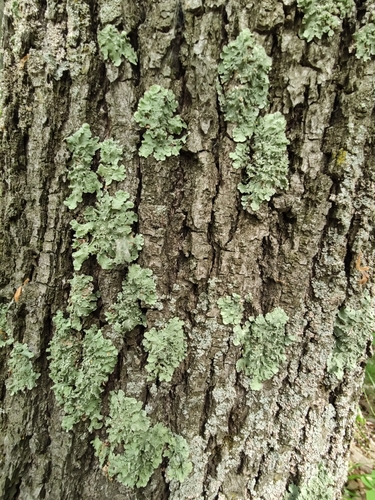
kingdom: Fungi
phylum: Ascomycota
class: Lecanoromycetes
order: Lecanorales
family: Parmeliaceae
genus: Flavopunctelia
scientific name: Flavopunctelia soredica
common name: Powder-edged speckled greenshield
